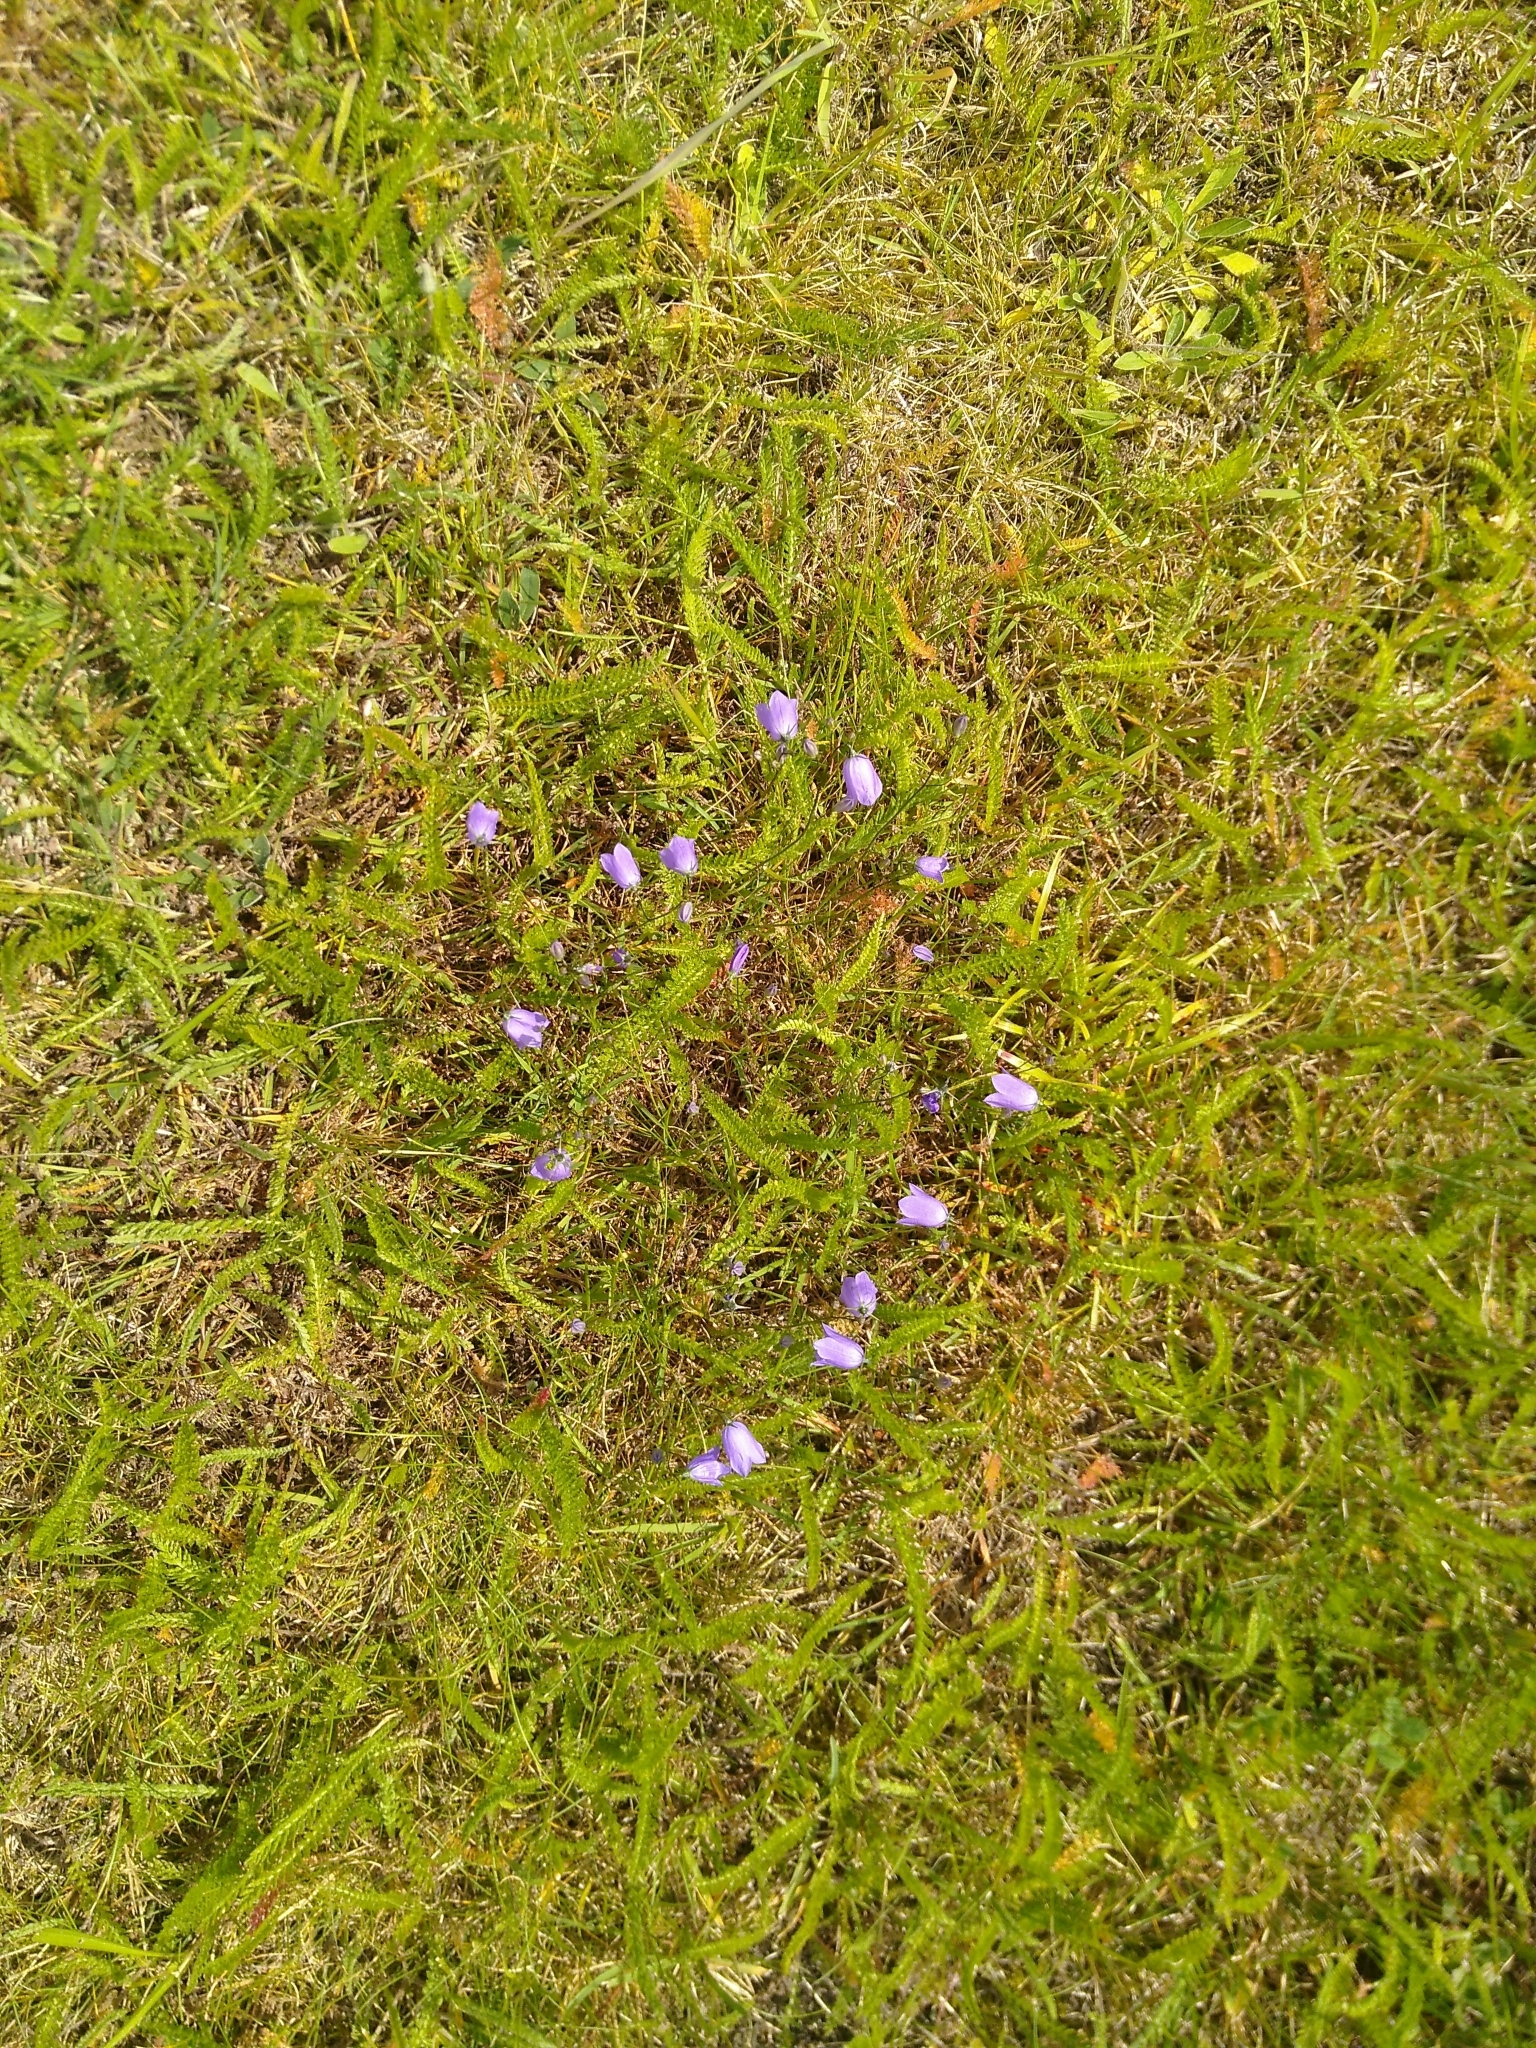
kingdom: Plantae
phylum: Tracheophyta
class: Magnoliopsida
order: Asterales
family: Campanulaceae
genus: Campanula
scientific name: Campanula rotundifolia
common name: Harebell
